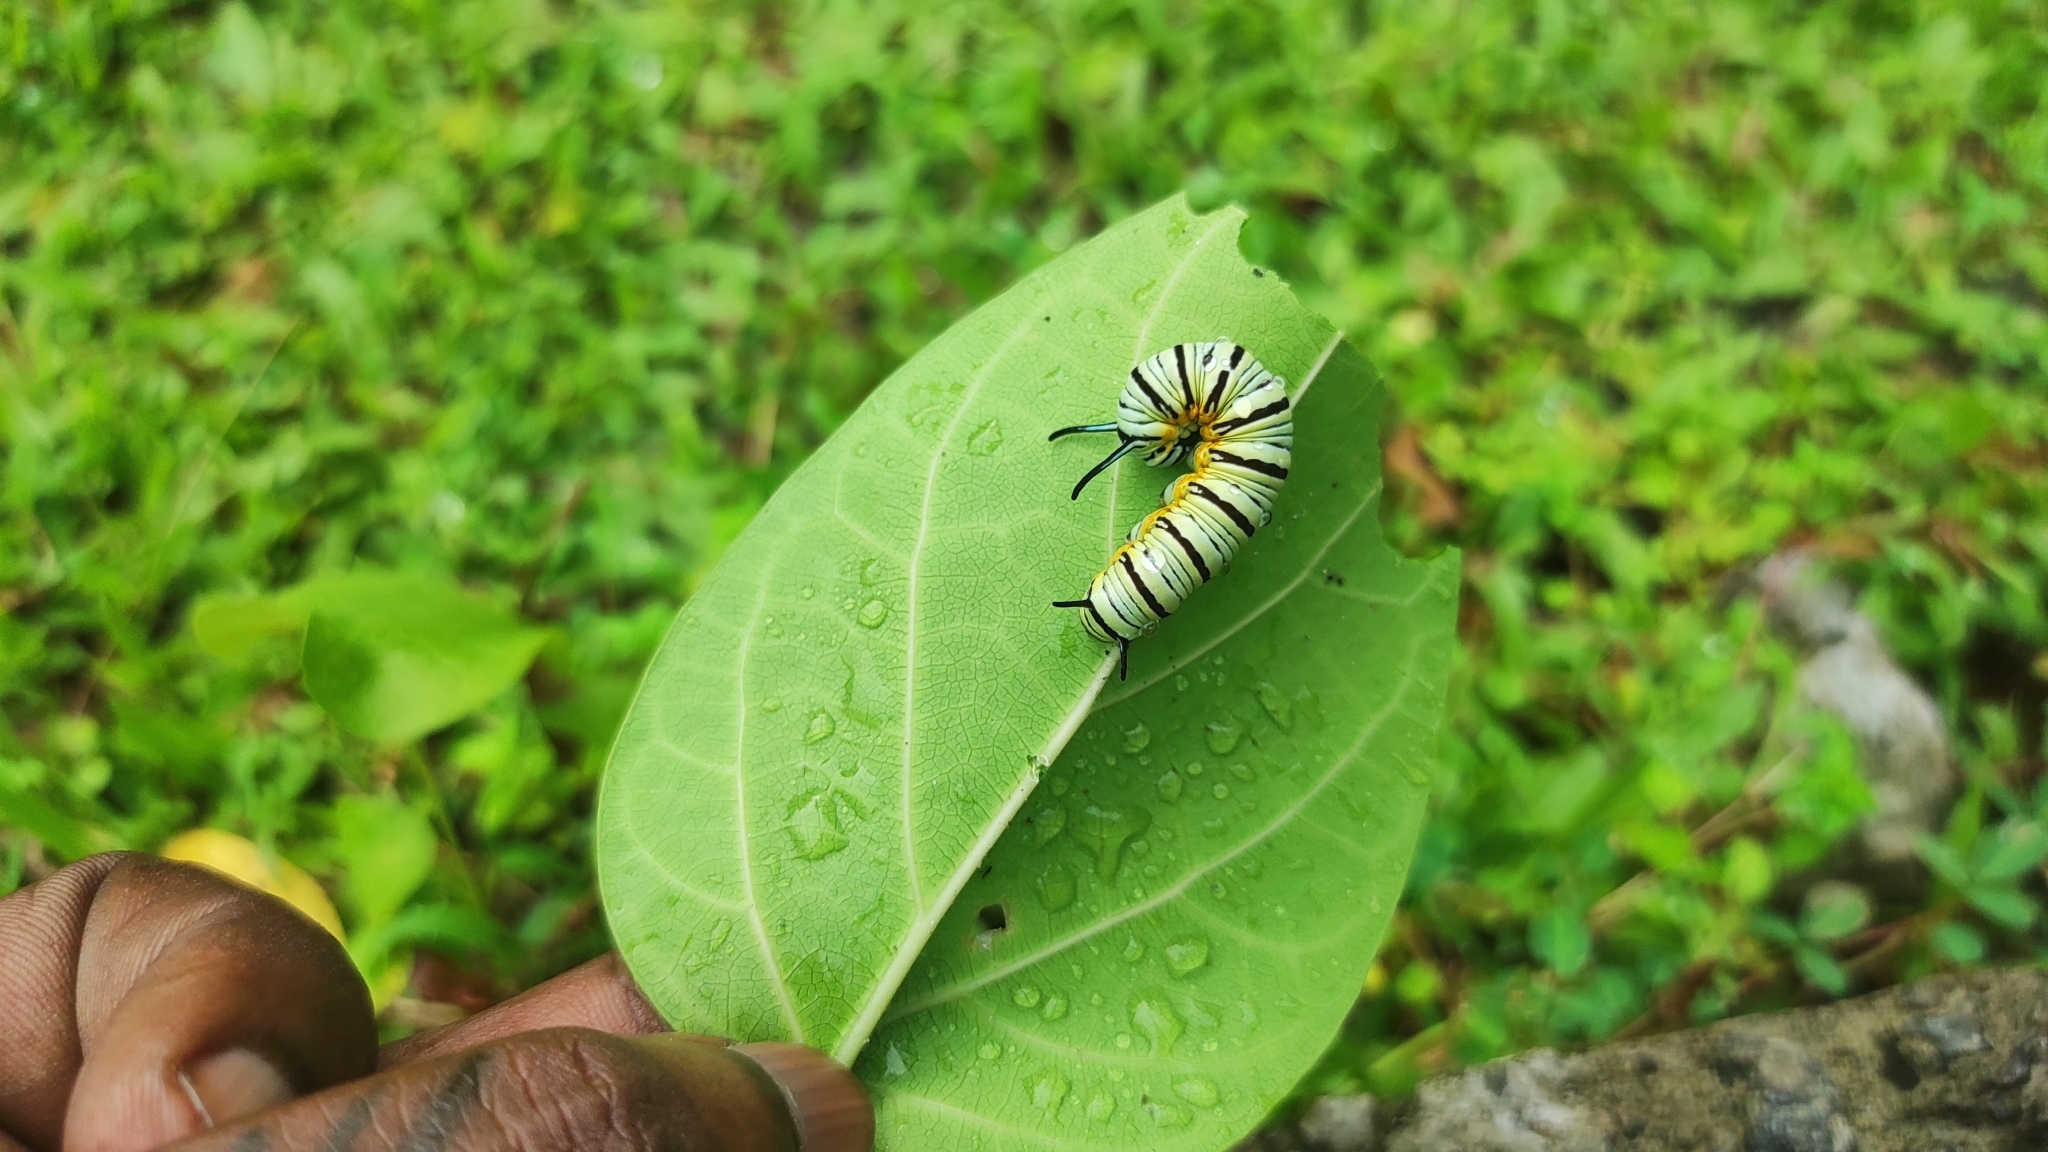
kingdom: Animalia
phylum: Arthropoda
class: Insecta
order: Lepidoptera
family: Nymphalidae
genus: Tirumala
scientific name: Tirumala limniace
